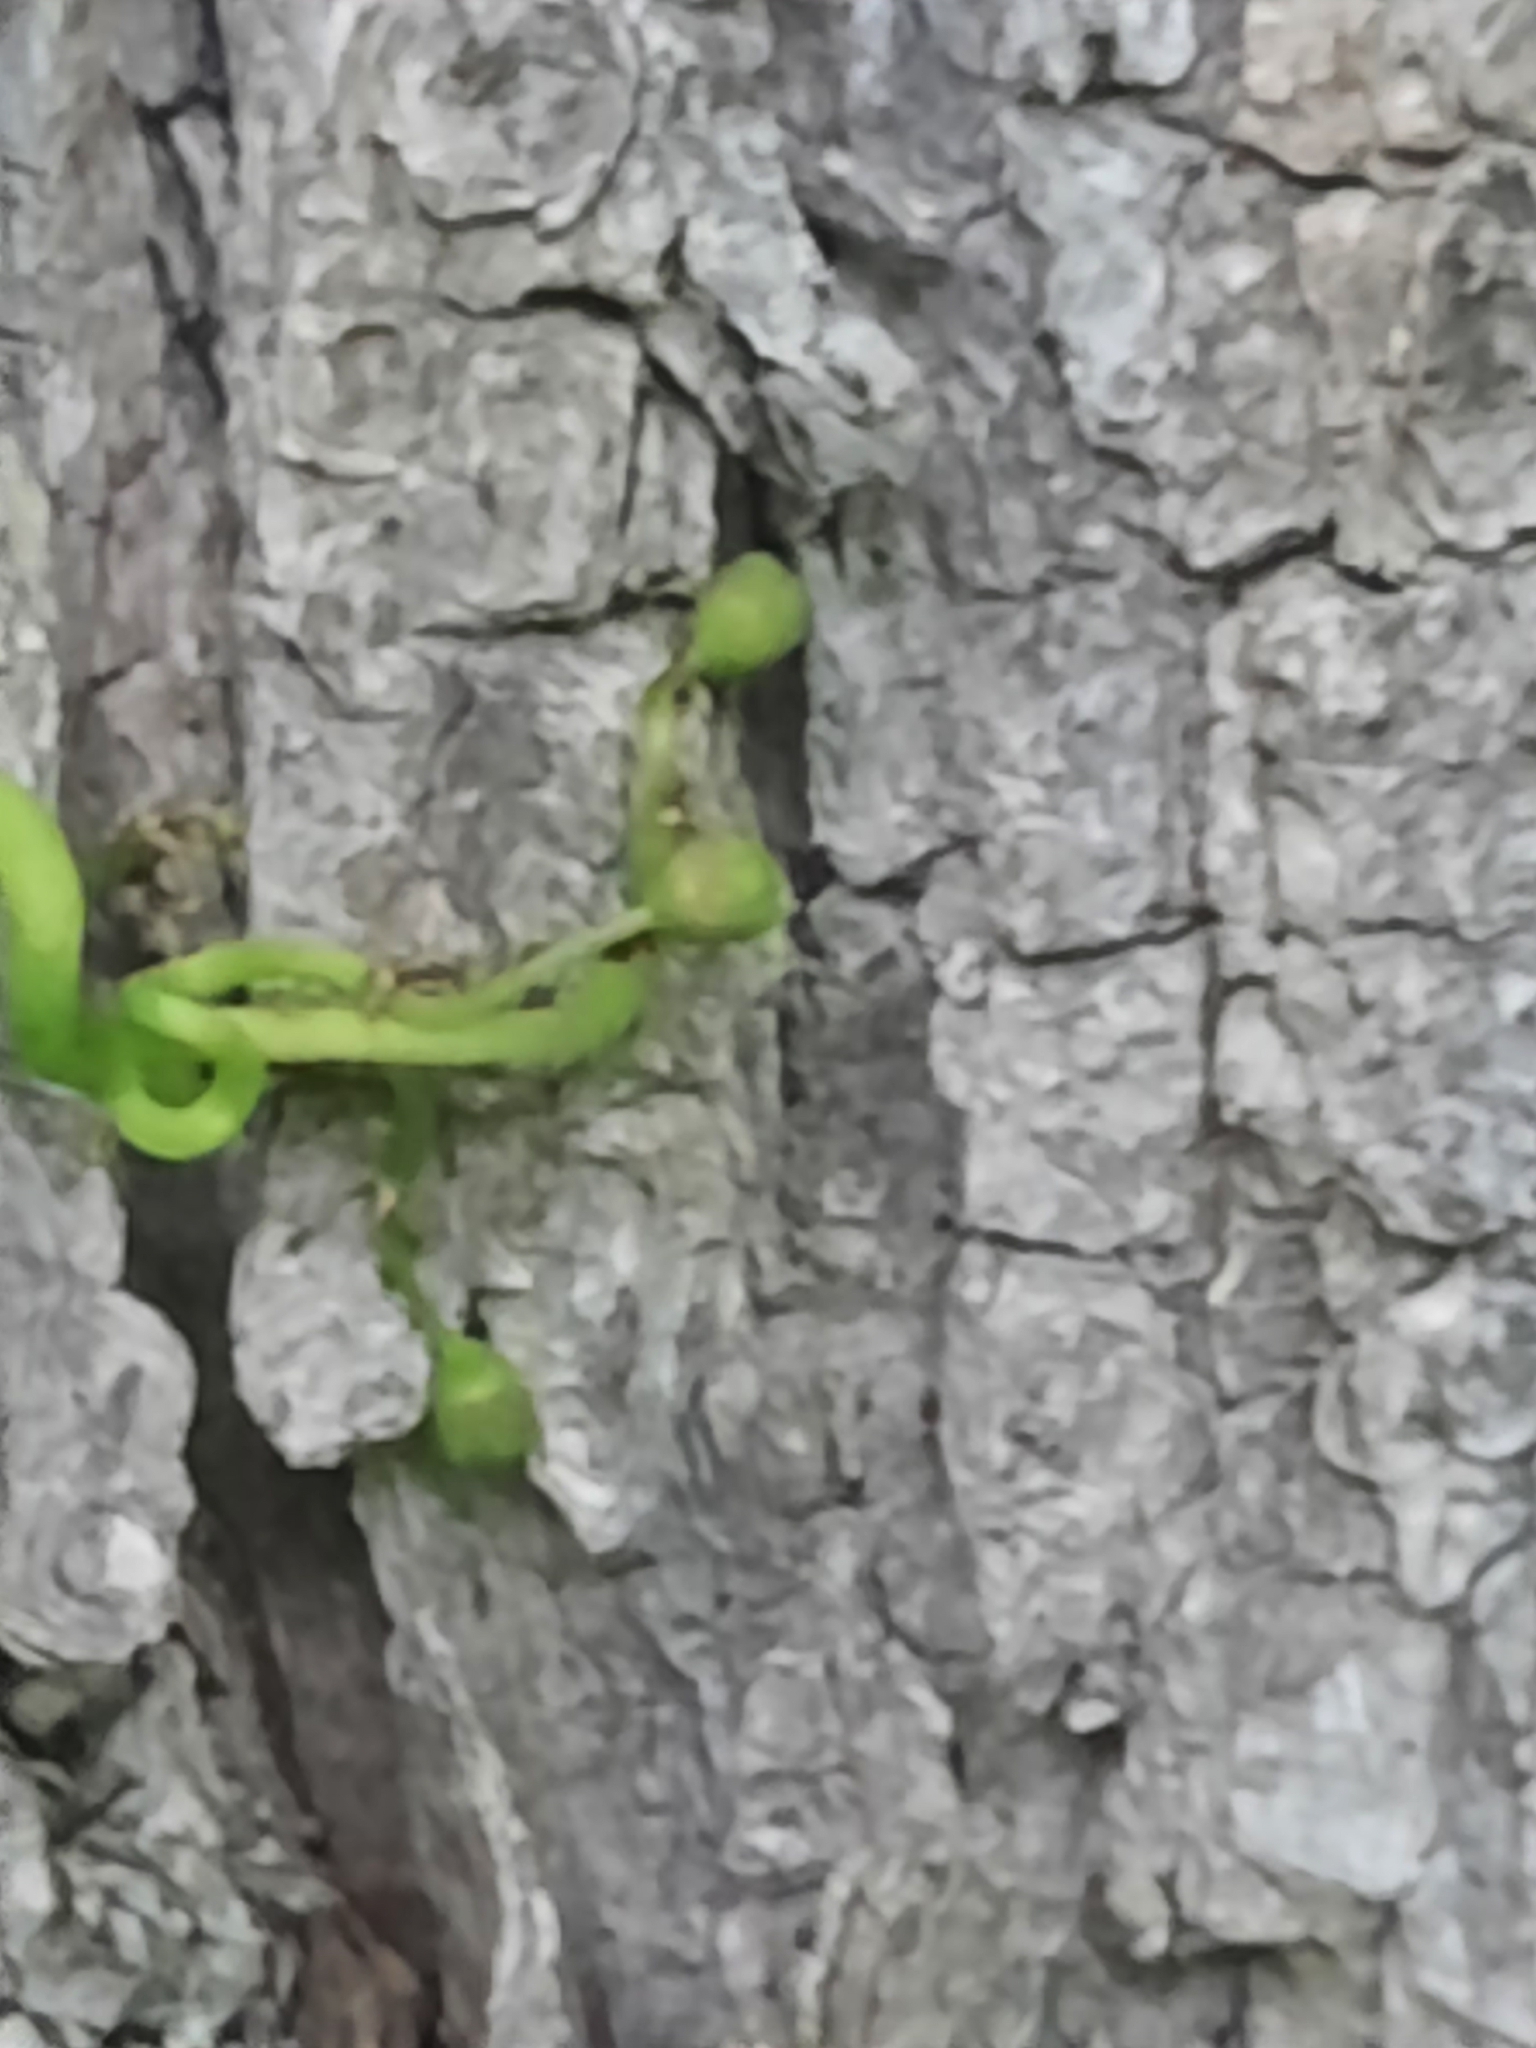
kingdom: Plantae
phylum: Tracheophyta
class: Magnoliopsida
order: Vitales
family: Vitaceae
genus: Parthenocissus
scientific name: Parthenocissus quinquefolia
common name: Virginia-creeper
